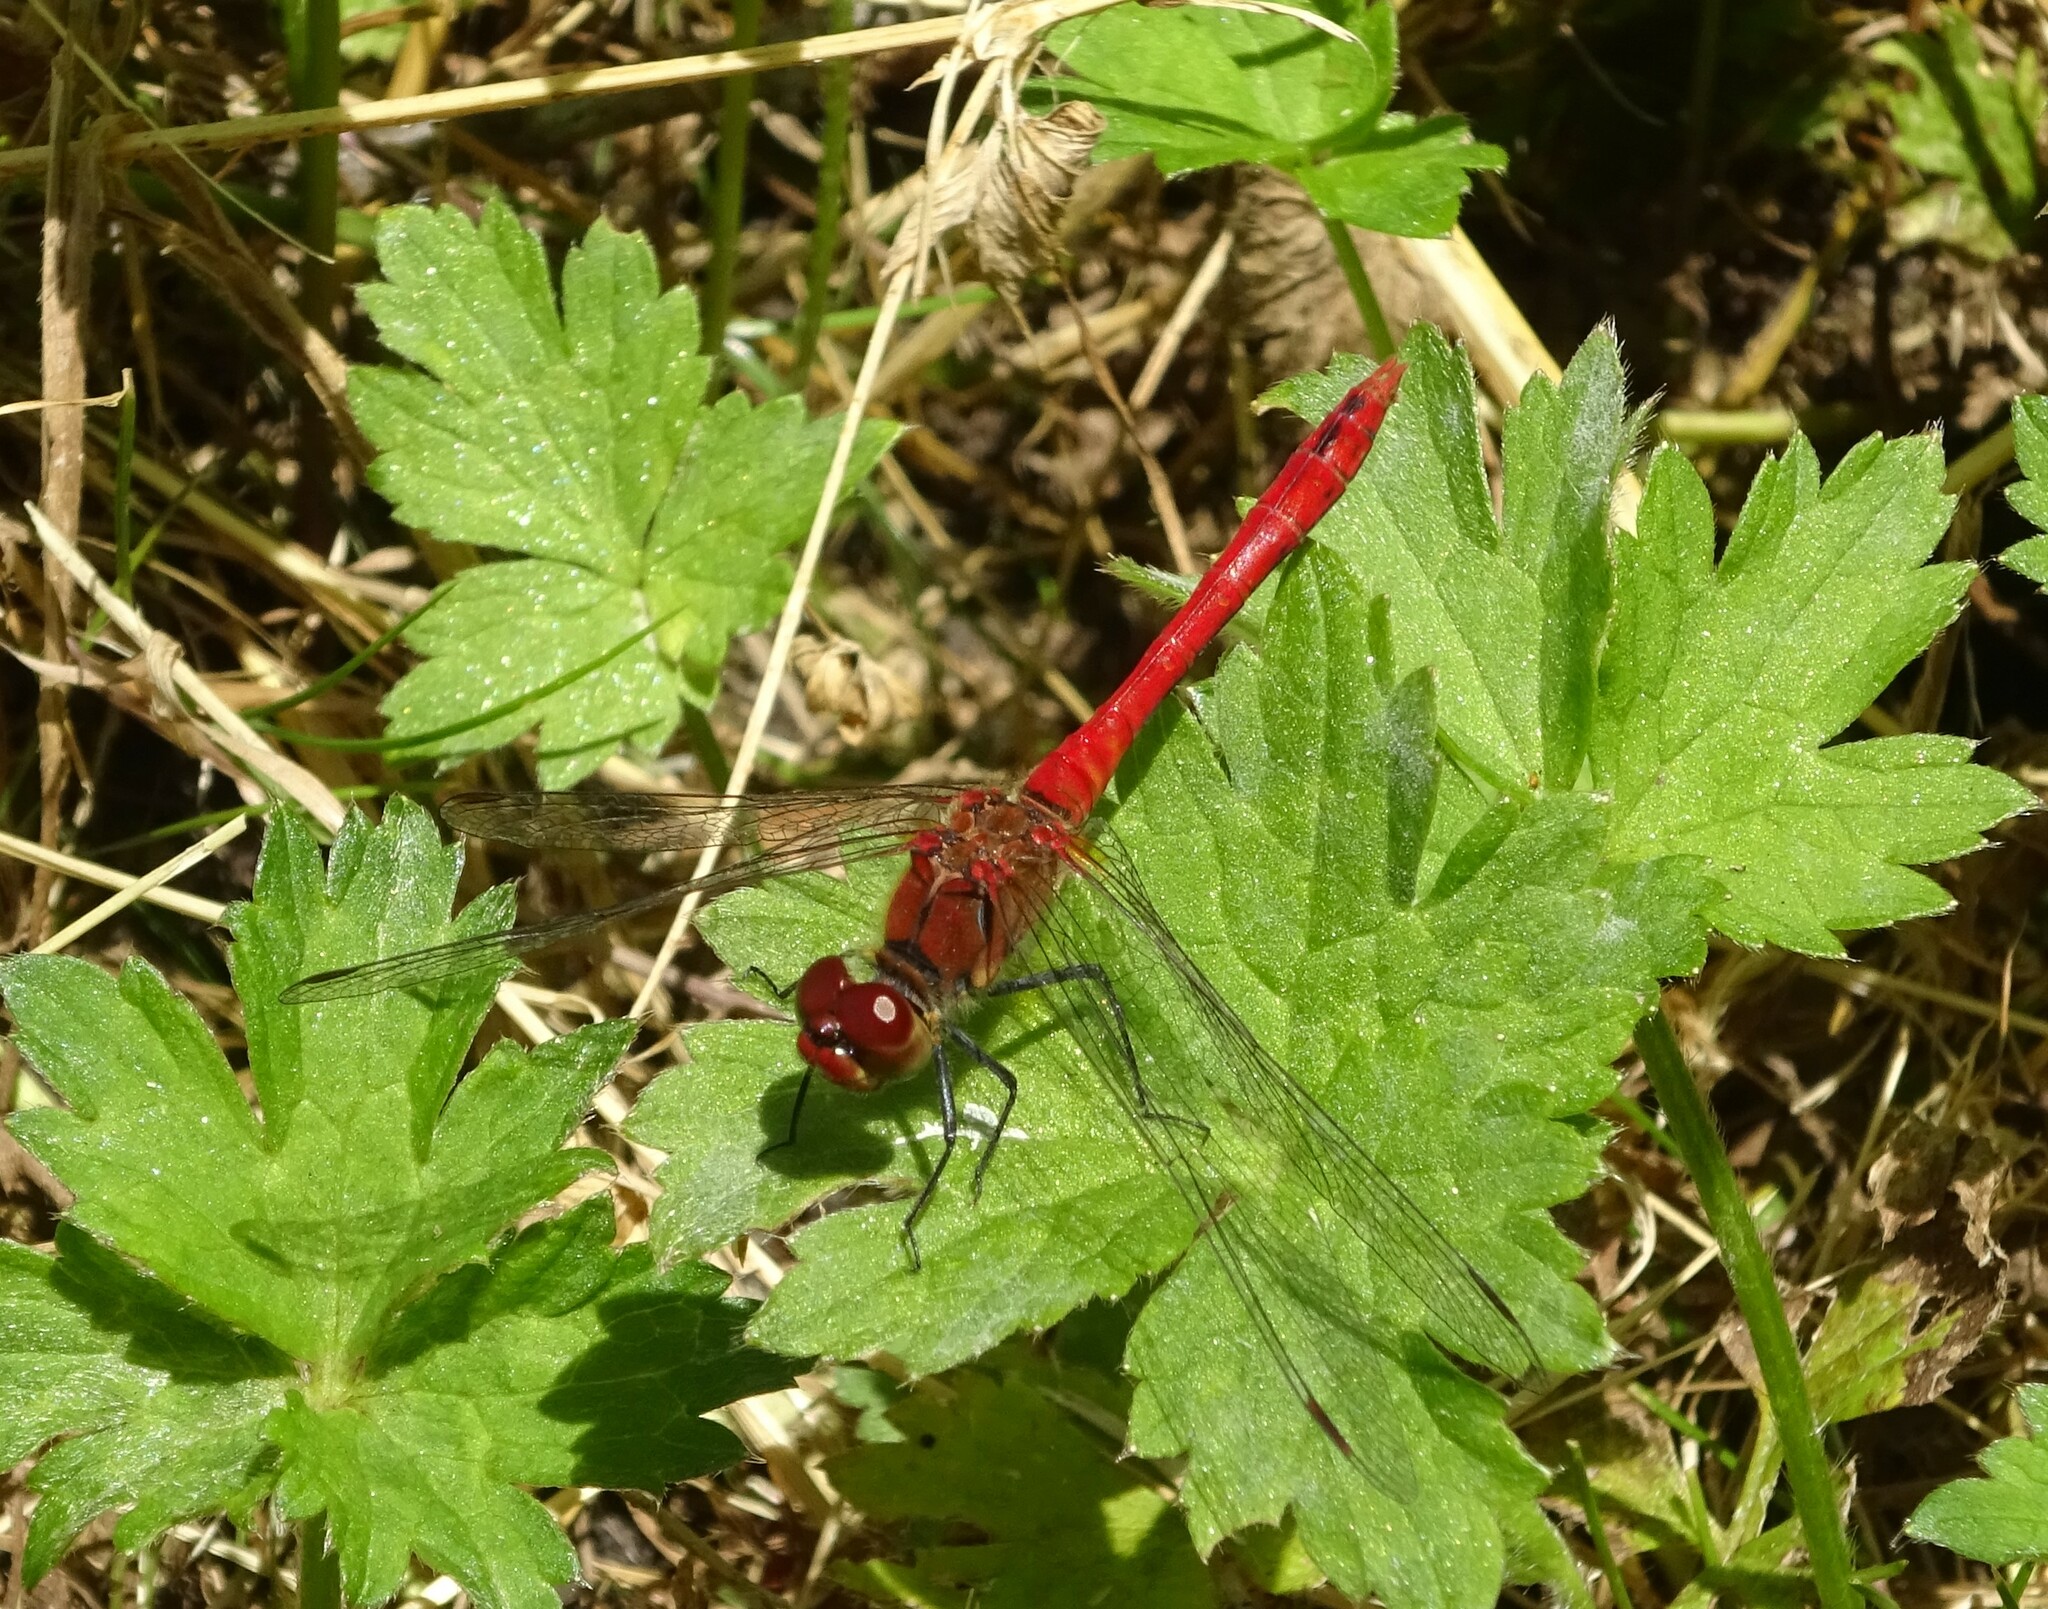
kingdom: Animalia
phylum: Arthropoda
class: Insecta
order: Odonata
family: Libellulidae
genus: Sympetrum
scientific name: Sympetrum sanguineum
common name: Ruddy darter
